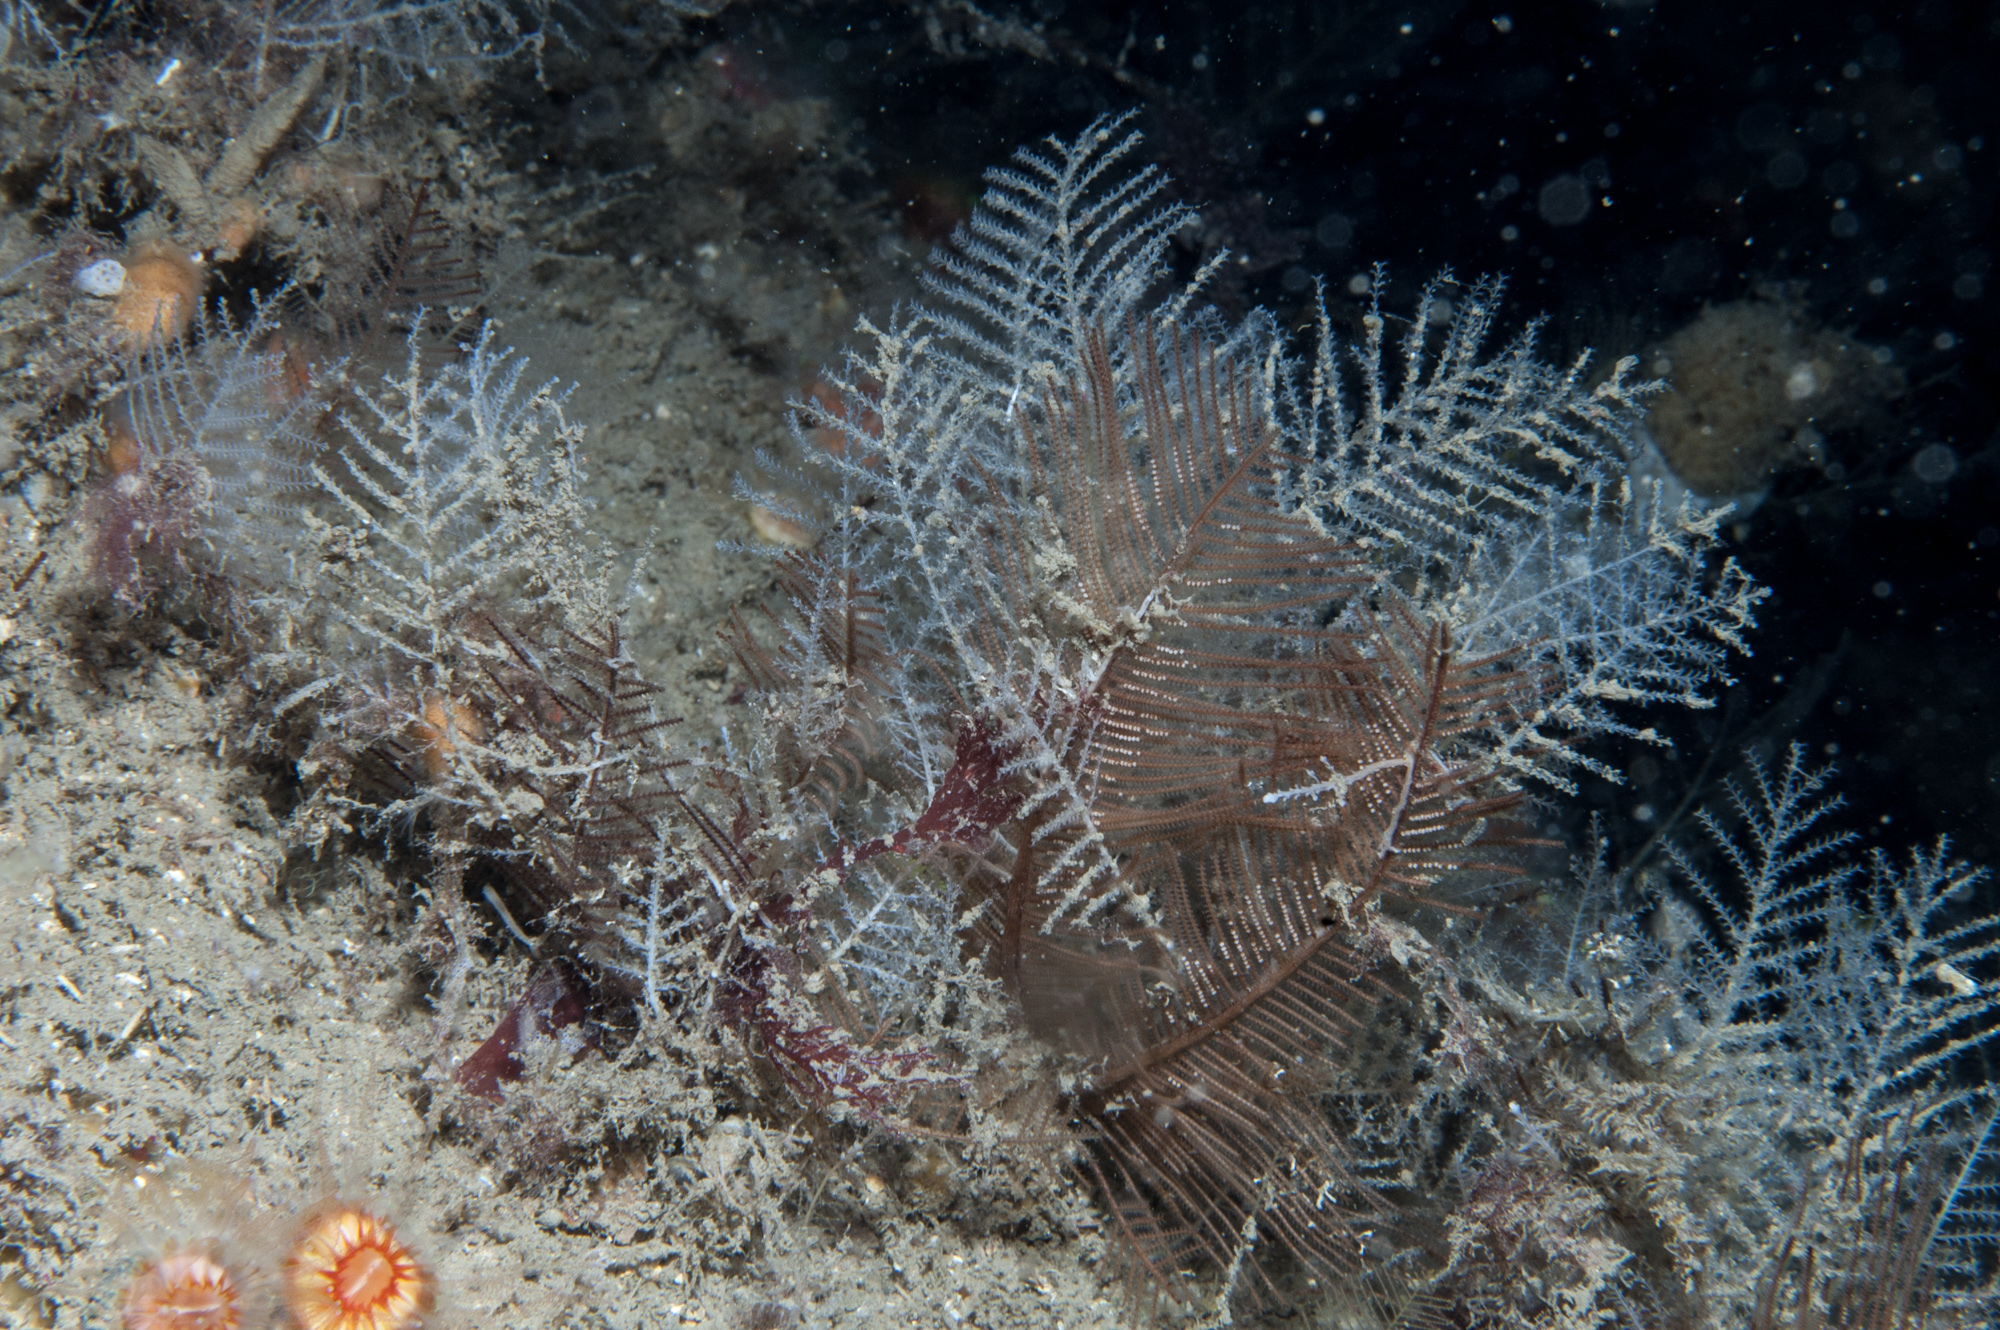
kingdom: Animalia
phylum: Cnidaria
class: Hydrozoa
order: Leptothecata
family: Sertulariidae
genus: Diphasia
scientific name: Diphasia fallax
